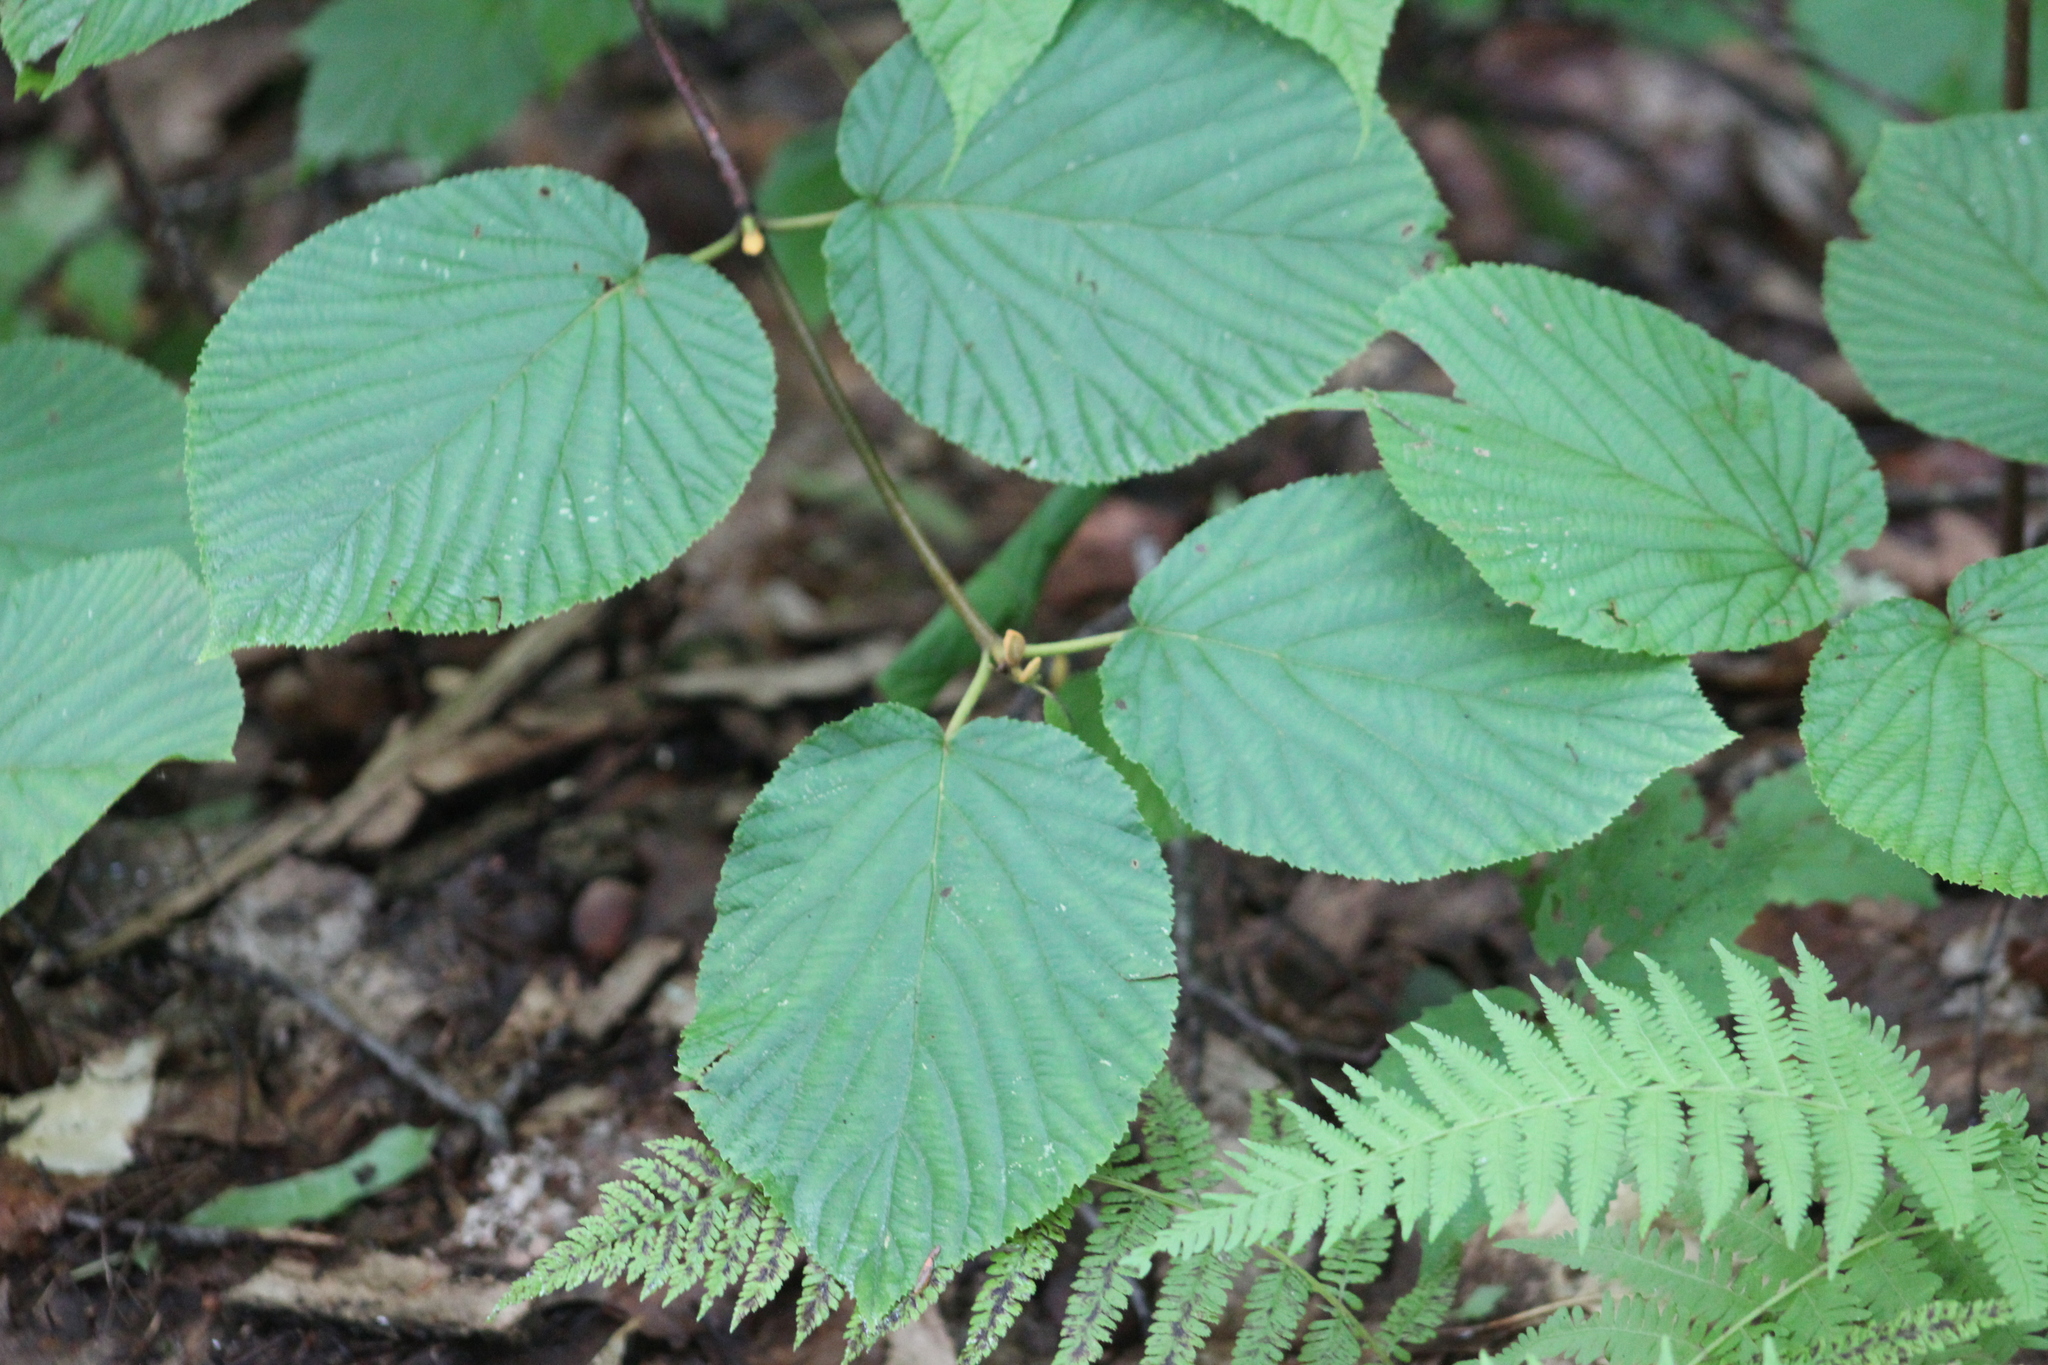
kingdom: Plantae
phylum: Tracheophyta
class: Magnoliopsida
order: Dipsacales
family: Viburnaceae
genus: Viburnum
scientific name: Viburnum lantanoides
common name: Hobblebush
